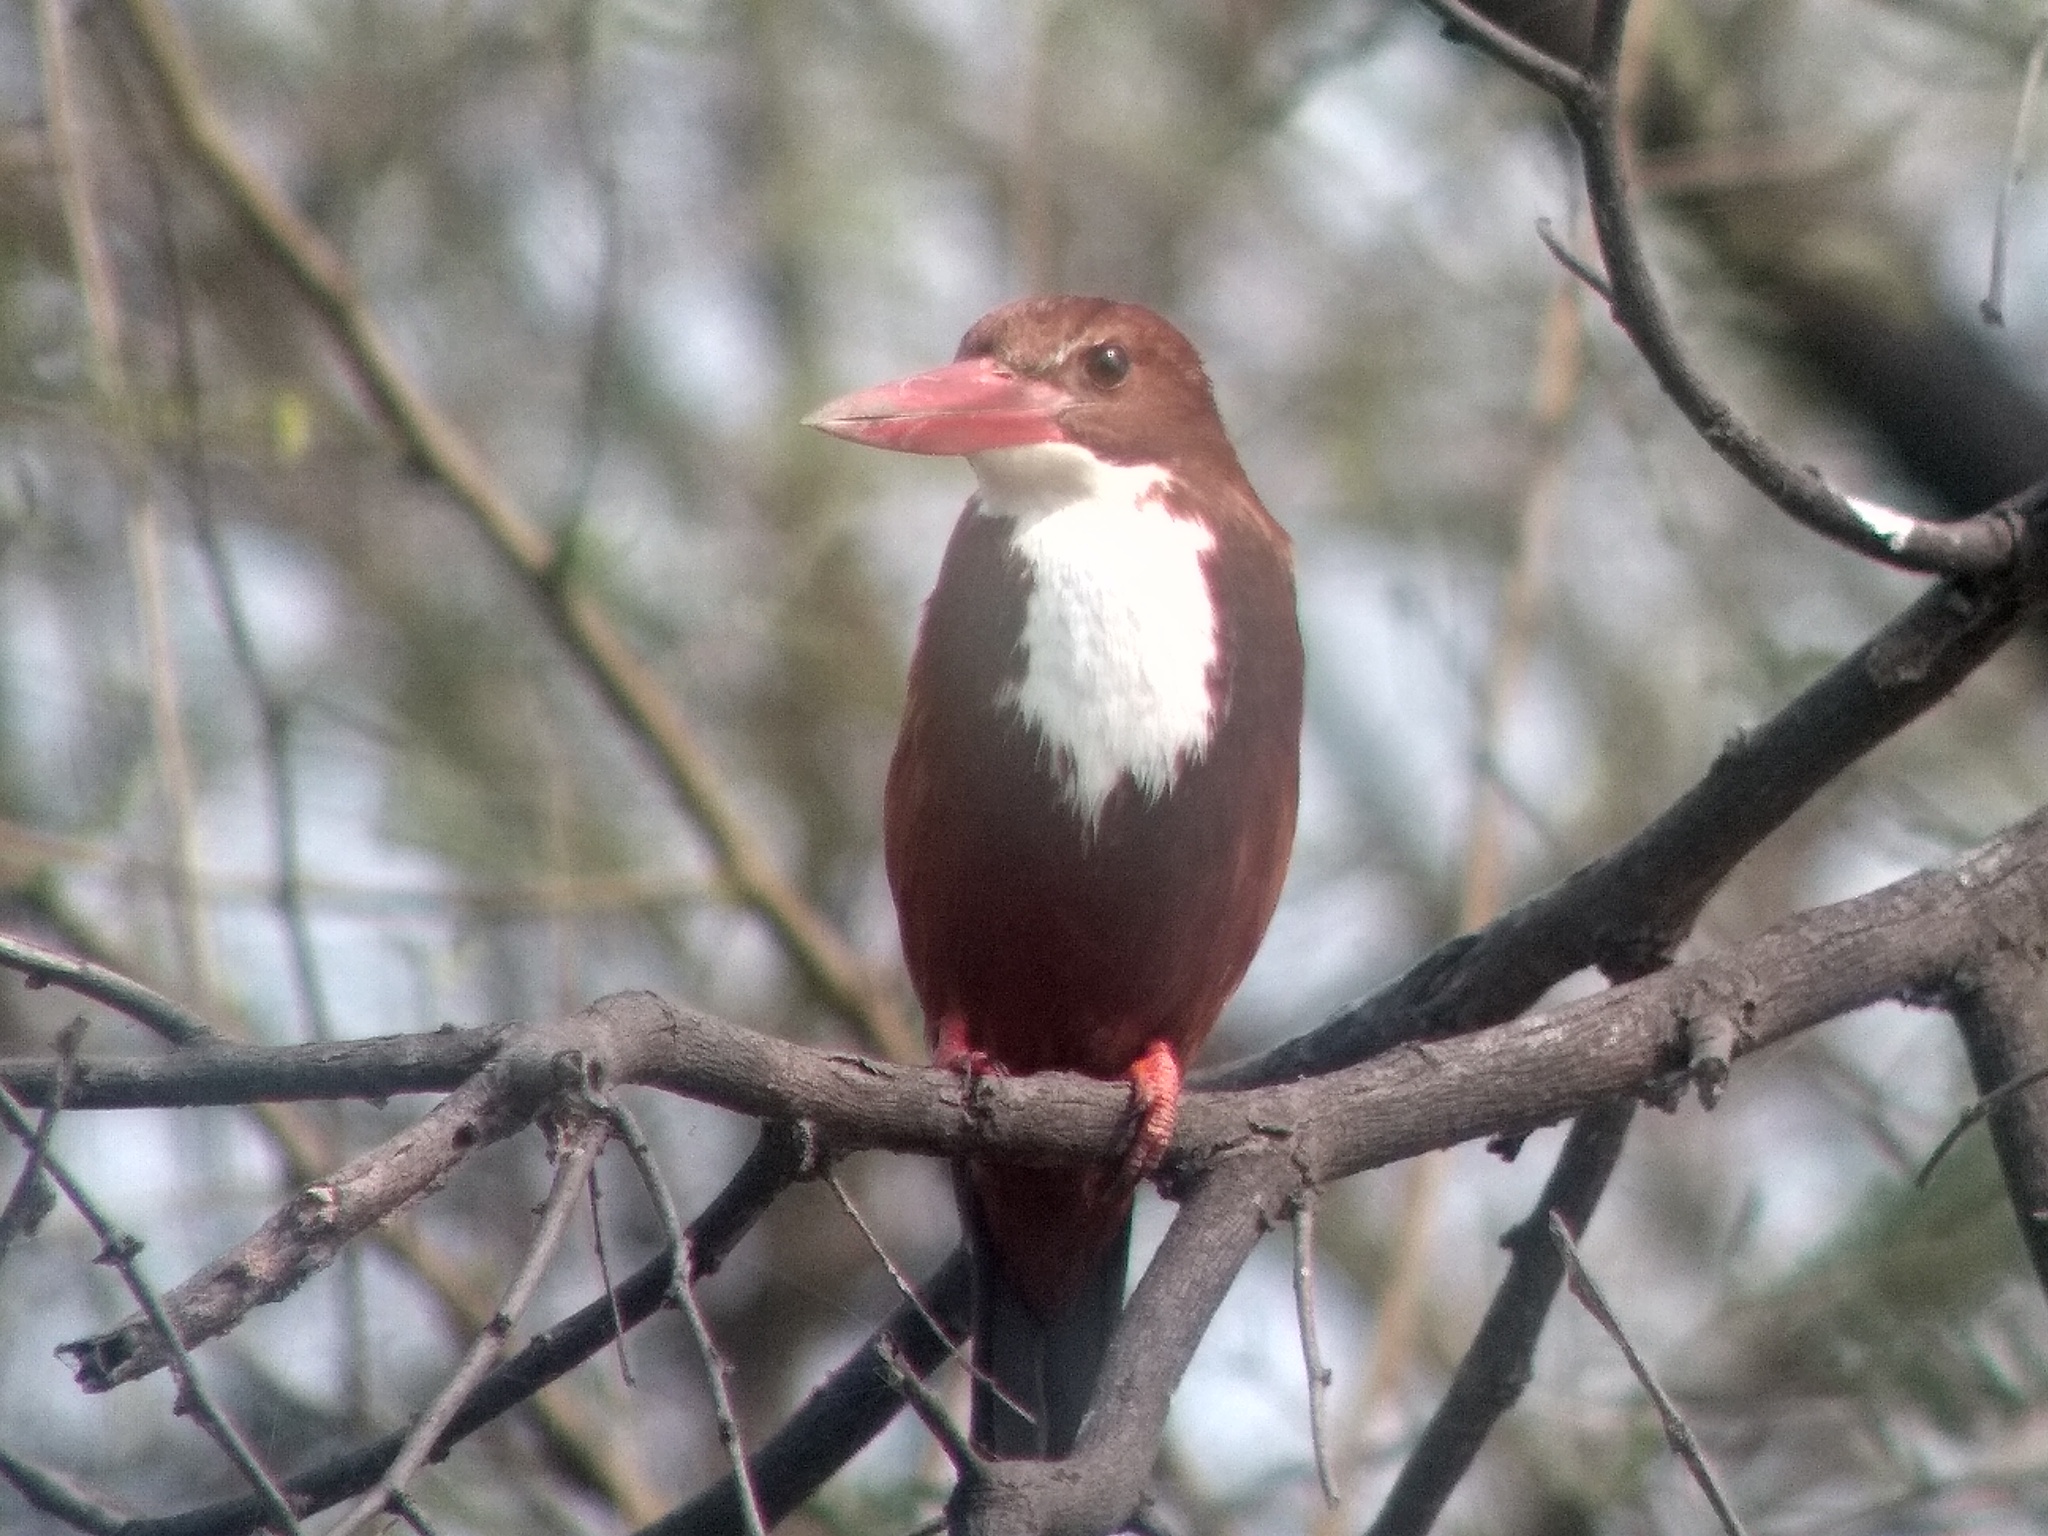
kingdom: Animalia
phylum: Chordata
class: Aves
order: Coraciiformes
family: Alcedinidae
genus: Halcyon
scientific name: Halcyon smyrnensis
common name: White-throated kingfisher
